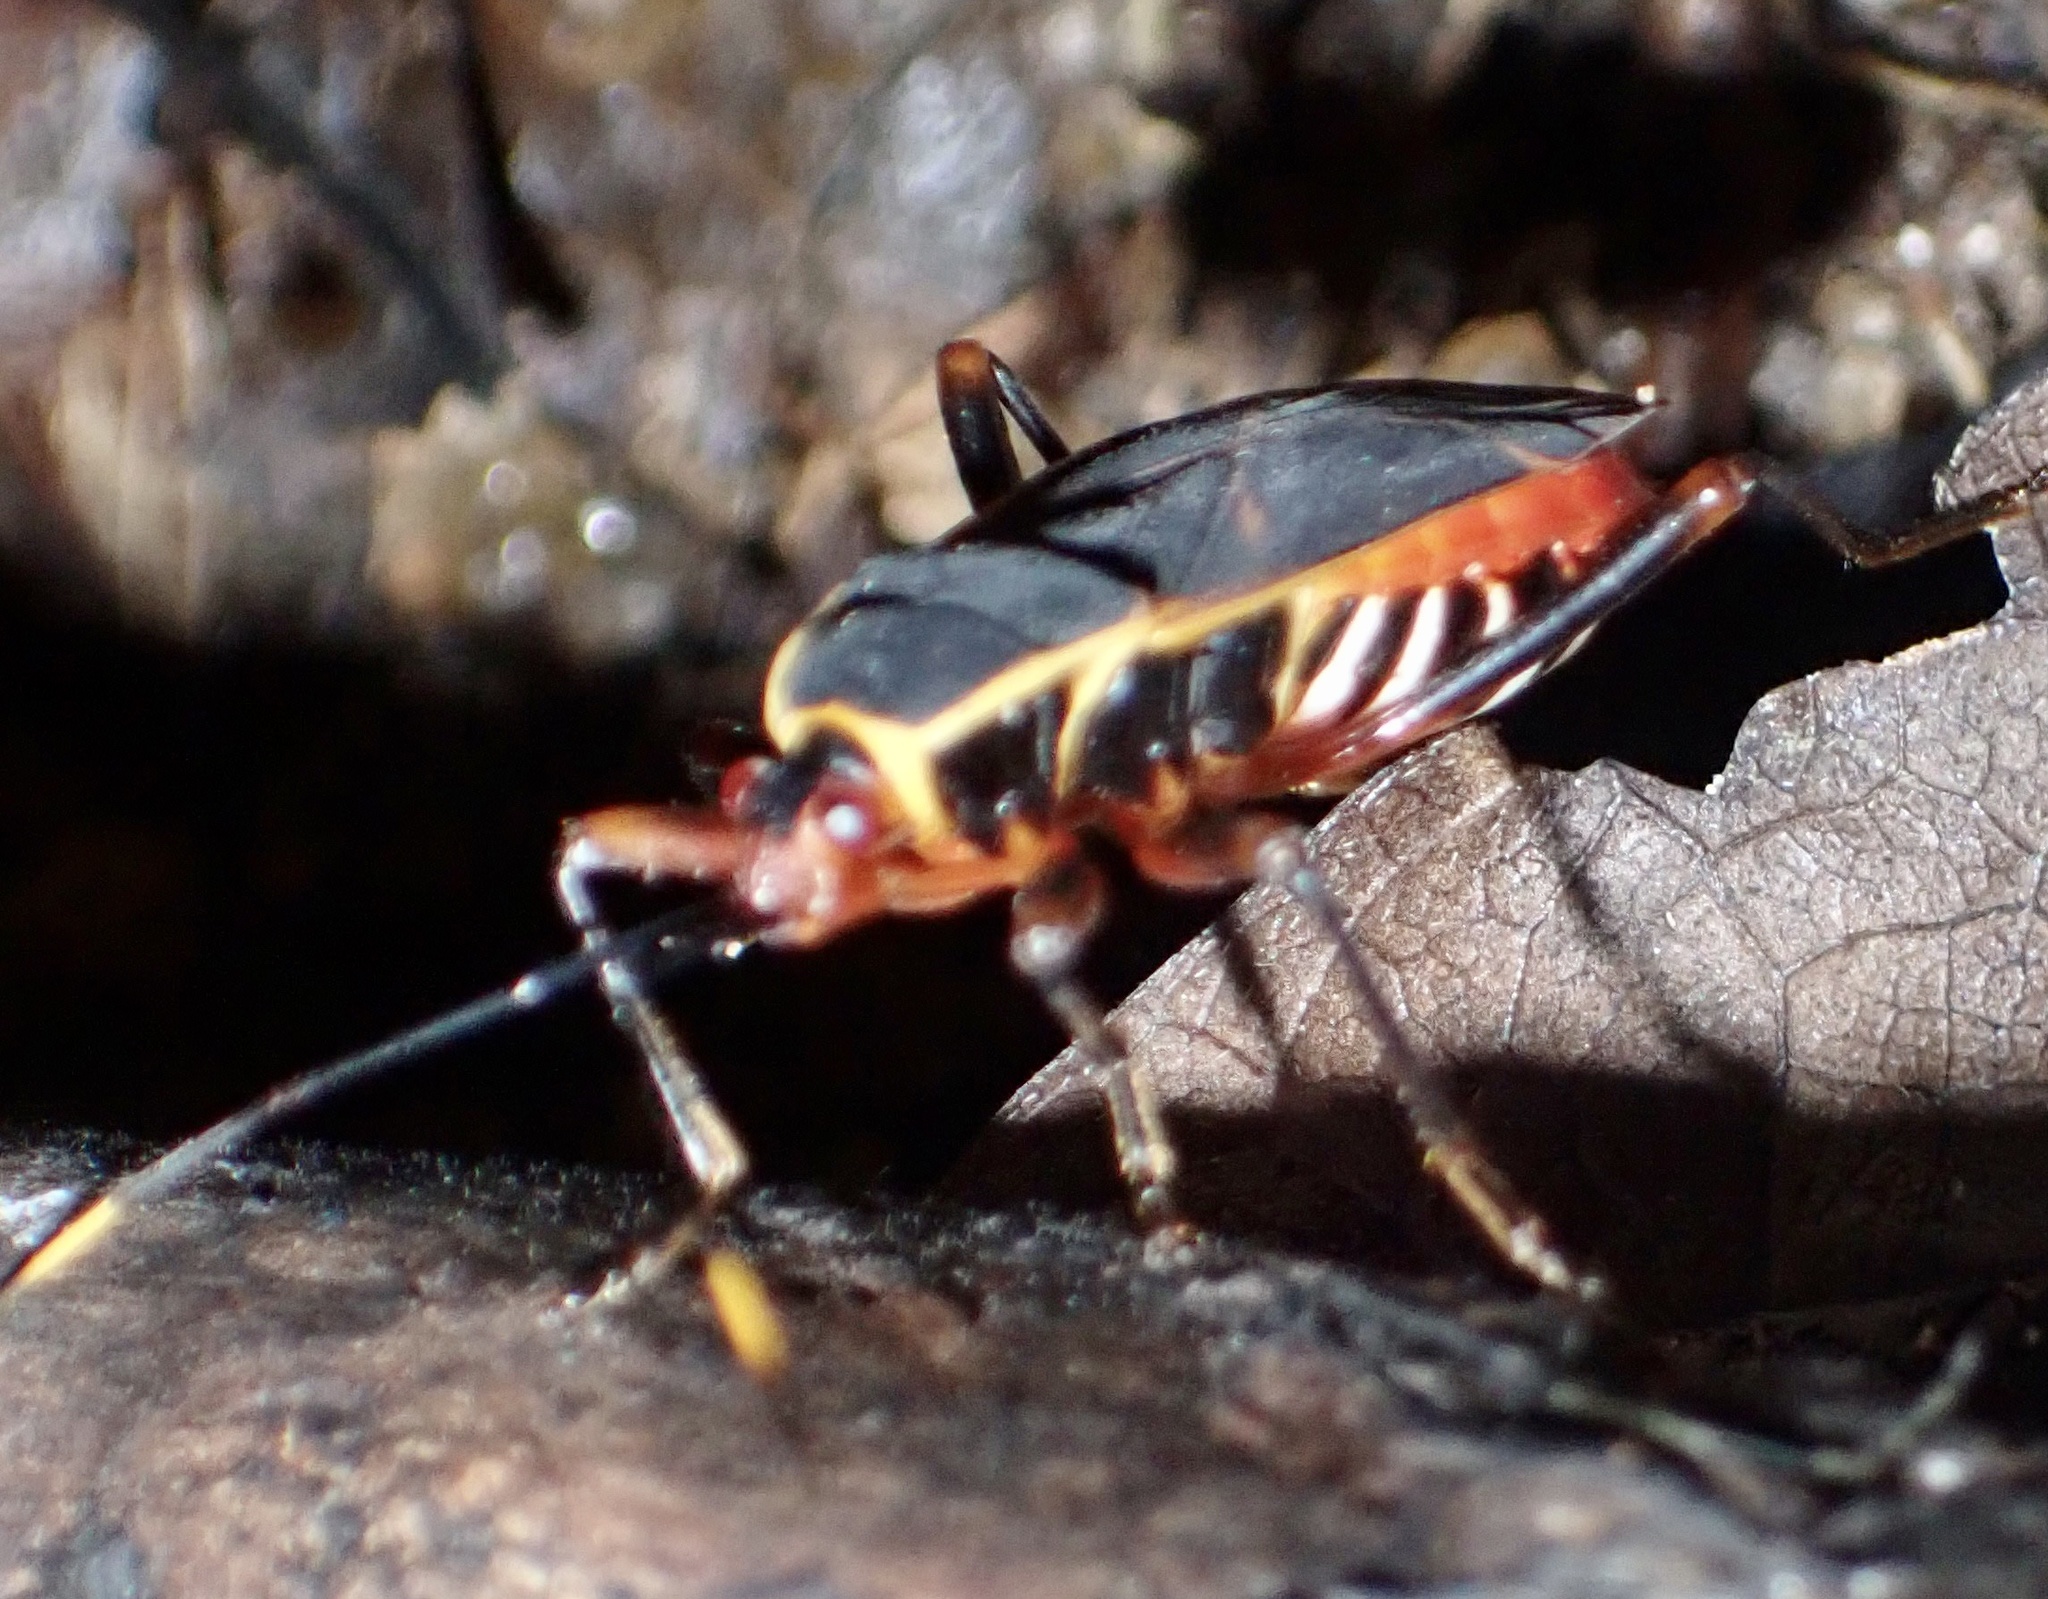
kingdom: Animalia
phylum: Arthropoda
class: Insecta
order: Hemiptera
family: Pyrrhocoridae
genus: Antilochus
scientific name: Antilochus
